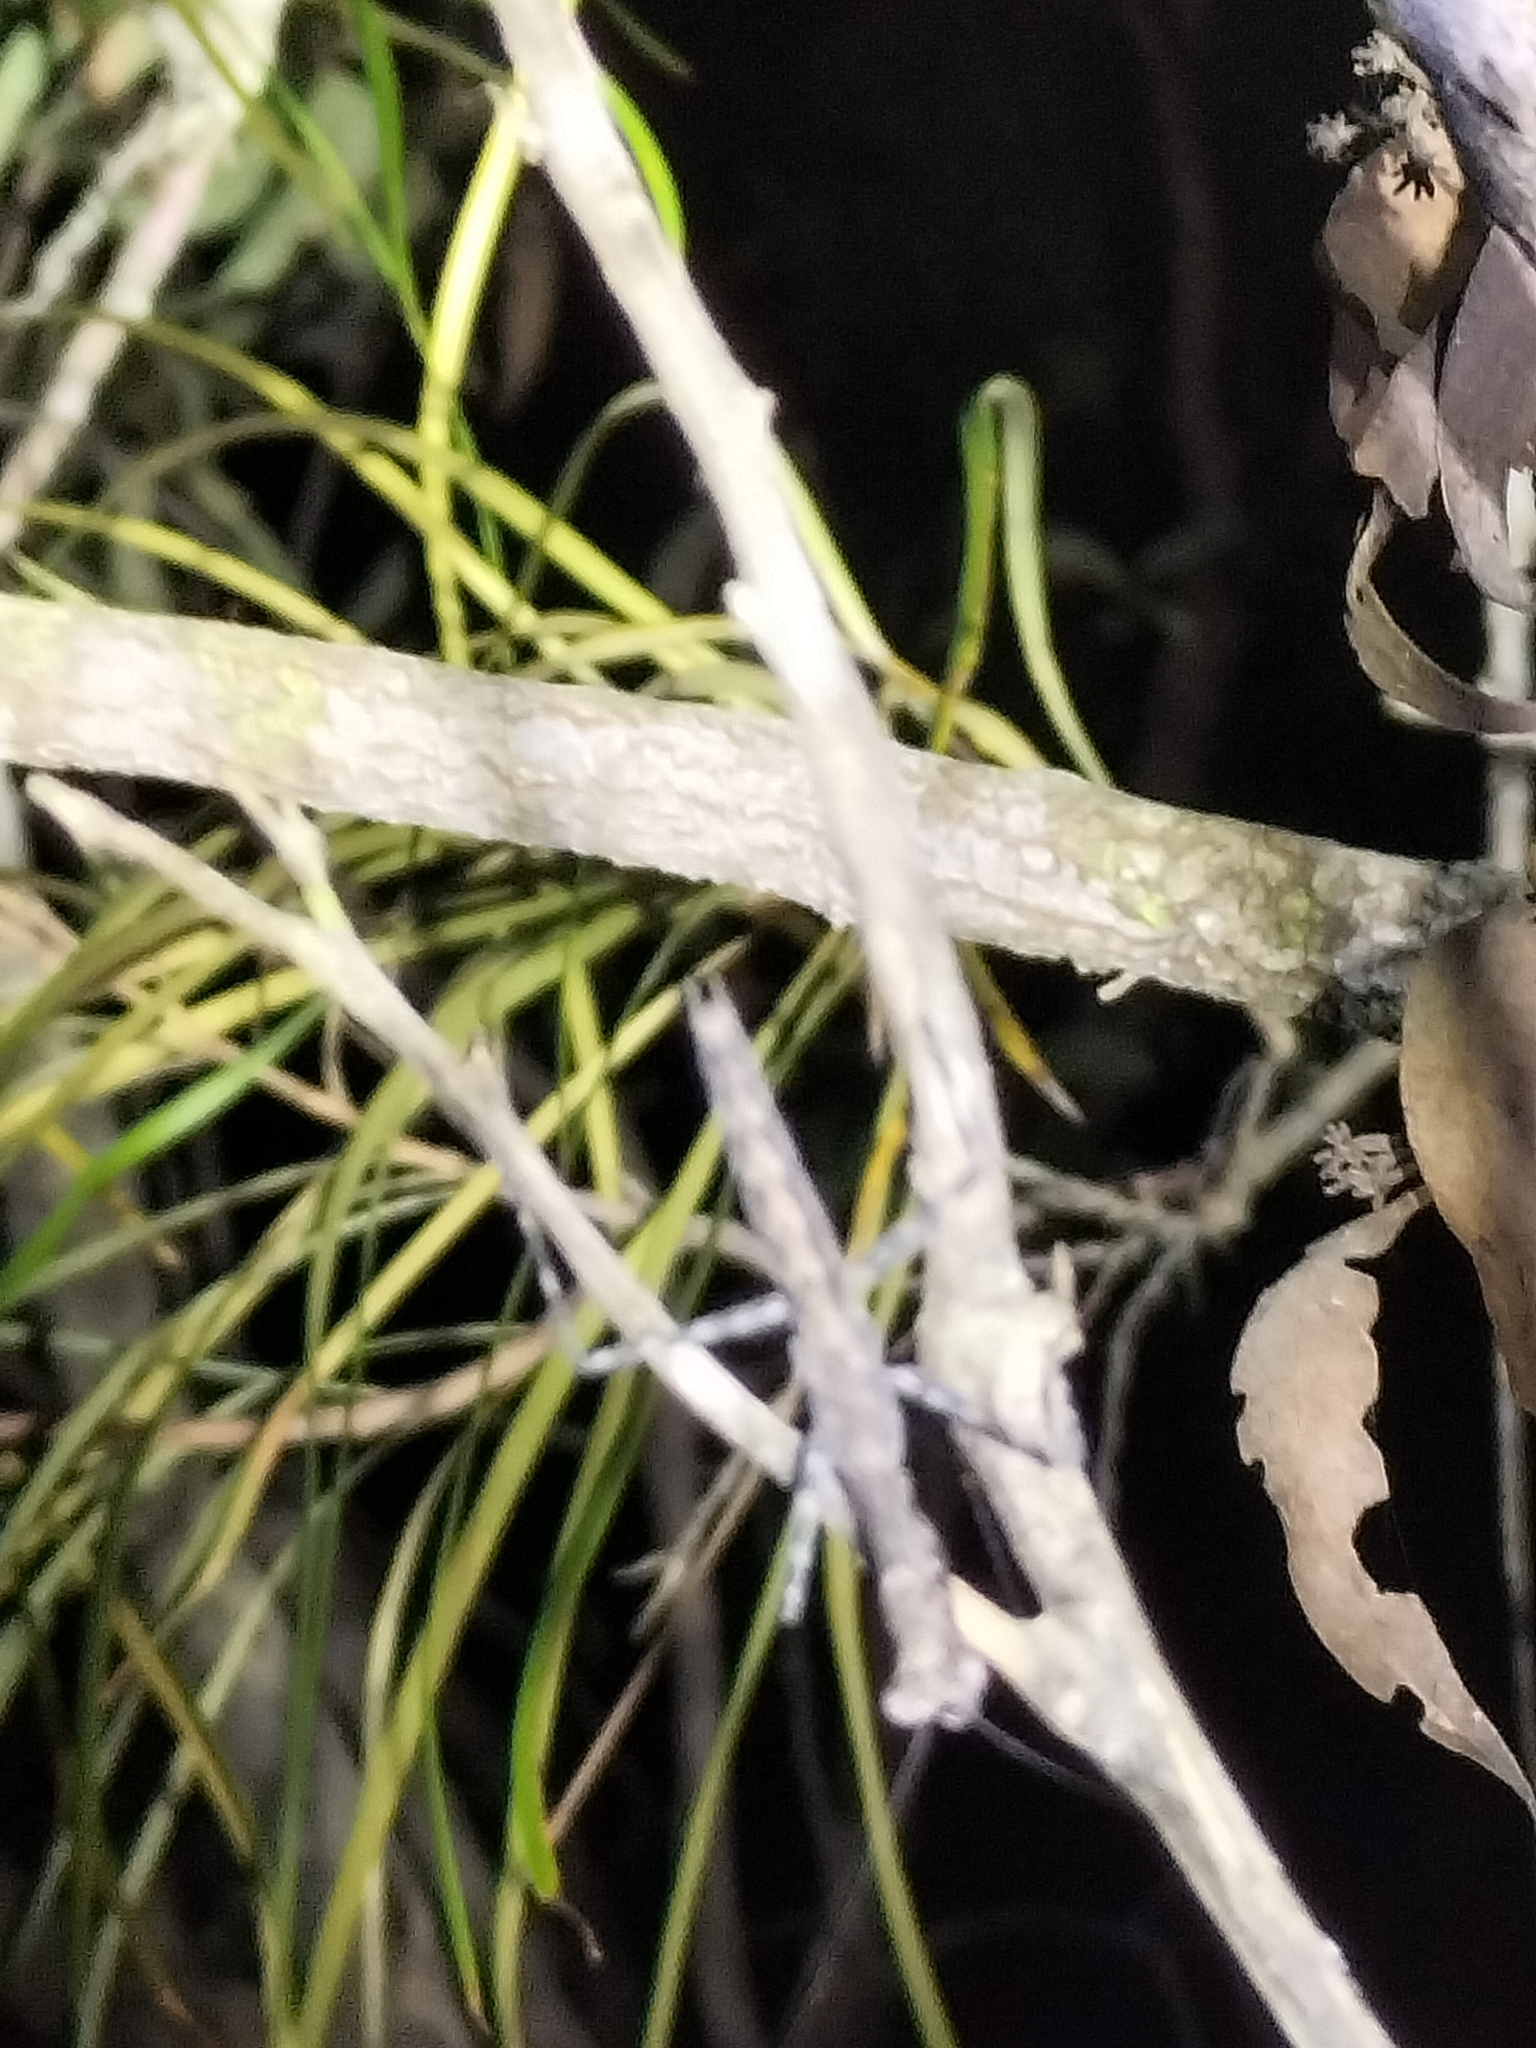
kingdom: Animalia
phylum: Arthropoda
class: Insecta
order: Mantodea
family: Nanomantidae
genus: Ciulfina
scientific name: Ciulfina biseriata
